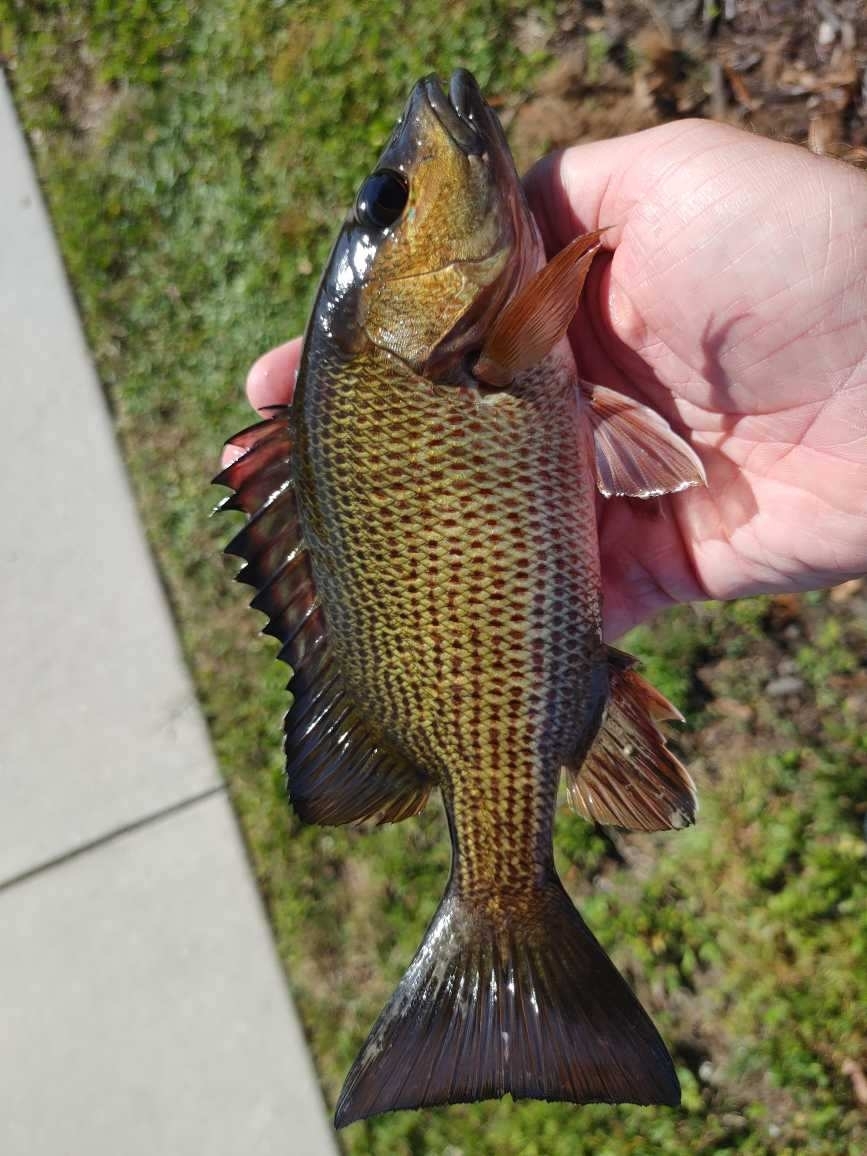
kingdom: Animalia
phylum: Chordata
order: Perciformes
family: Lutjanidae
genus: Lutjanus
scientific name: Lutjanus griseus
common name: Gray snapper
